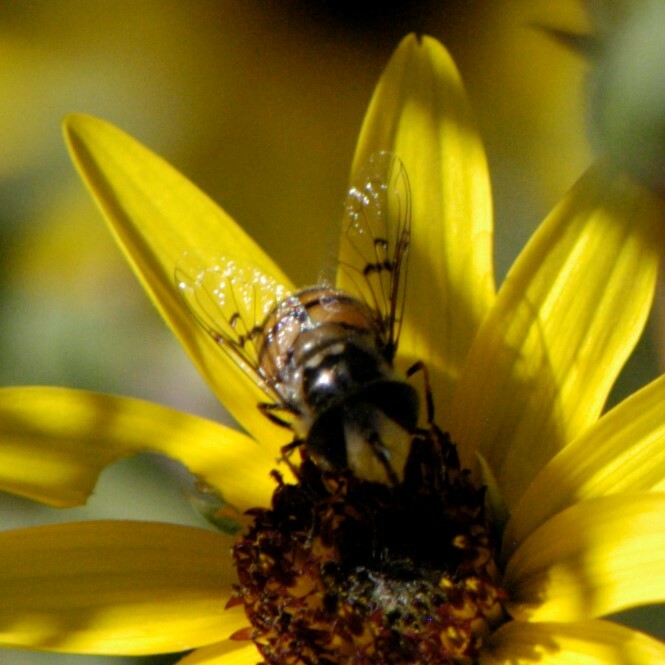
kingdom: Animalia
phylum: Arthropoda
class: Insecta
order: Diptera
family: Syrphidae
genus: Copestylum
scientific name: Copestylum avidum
